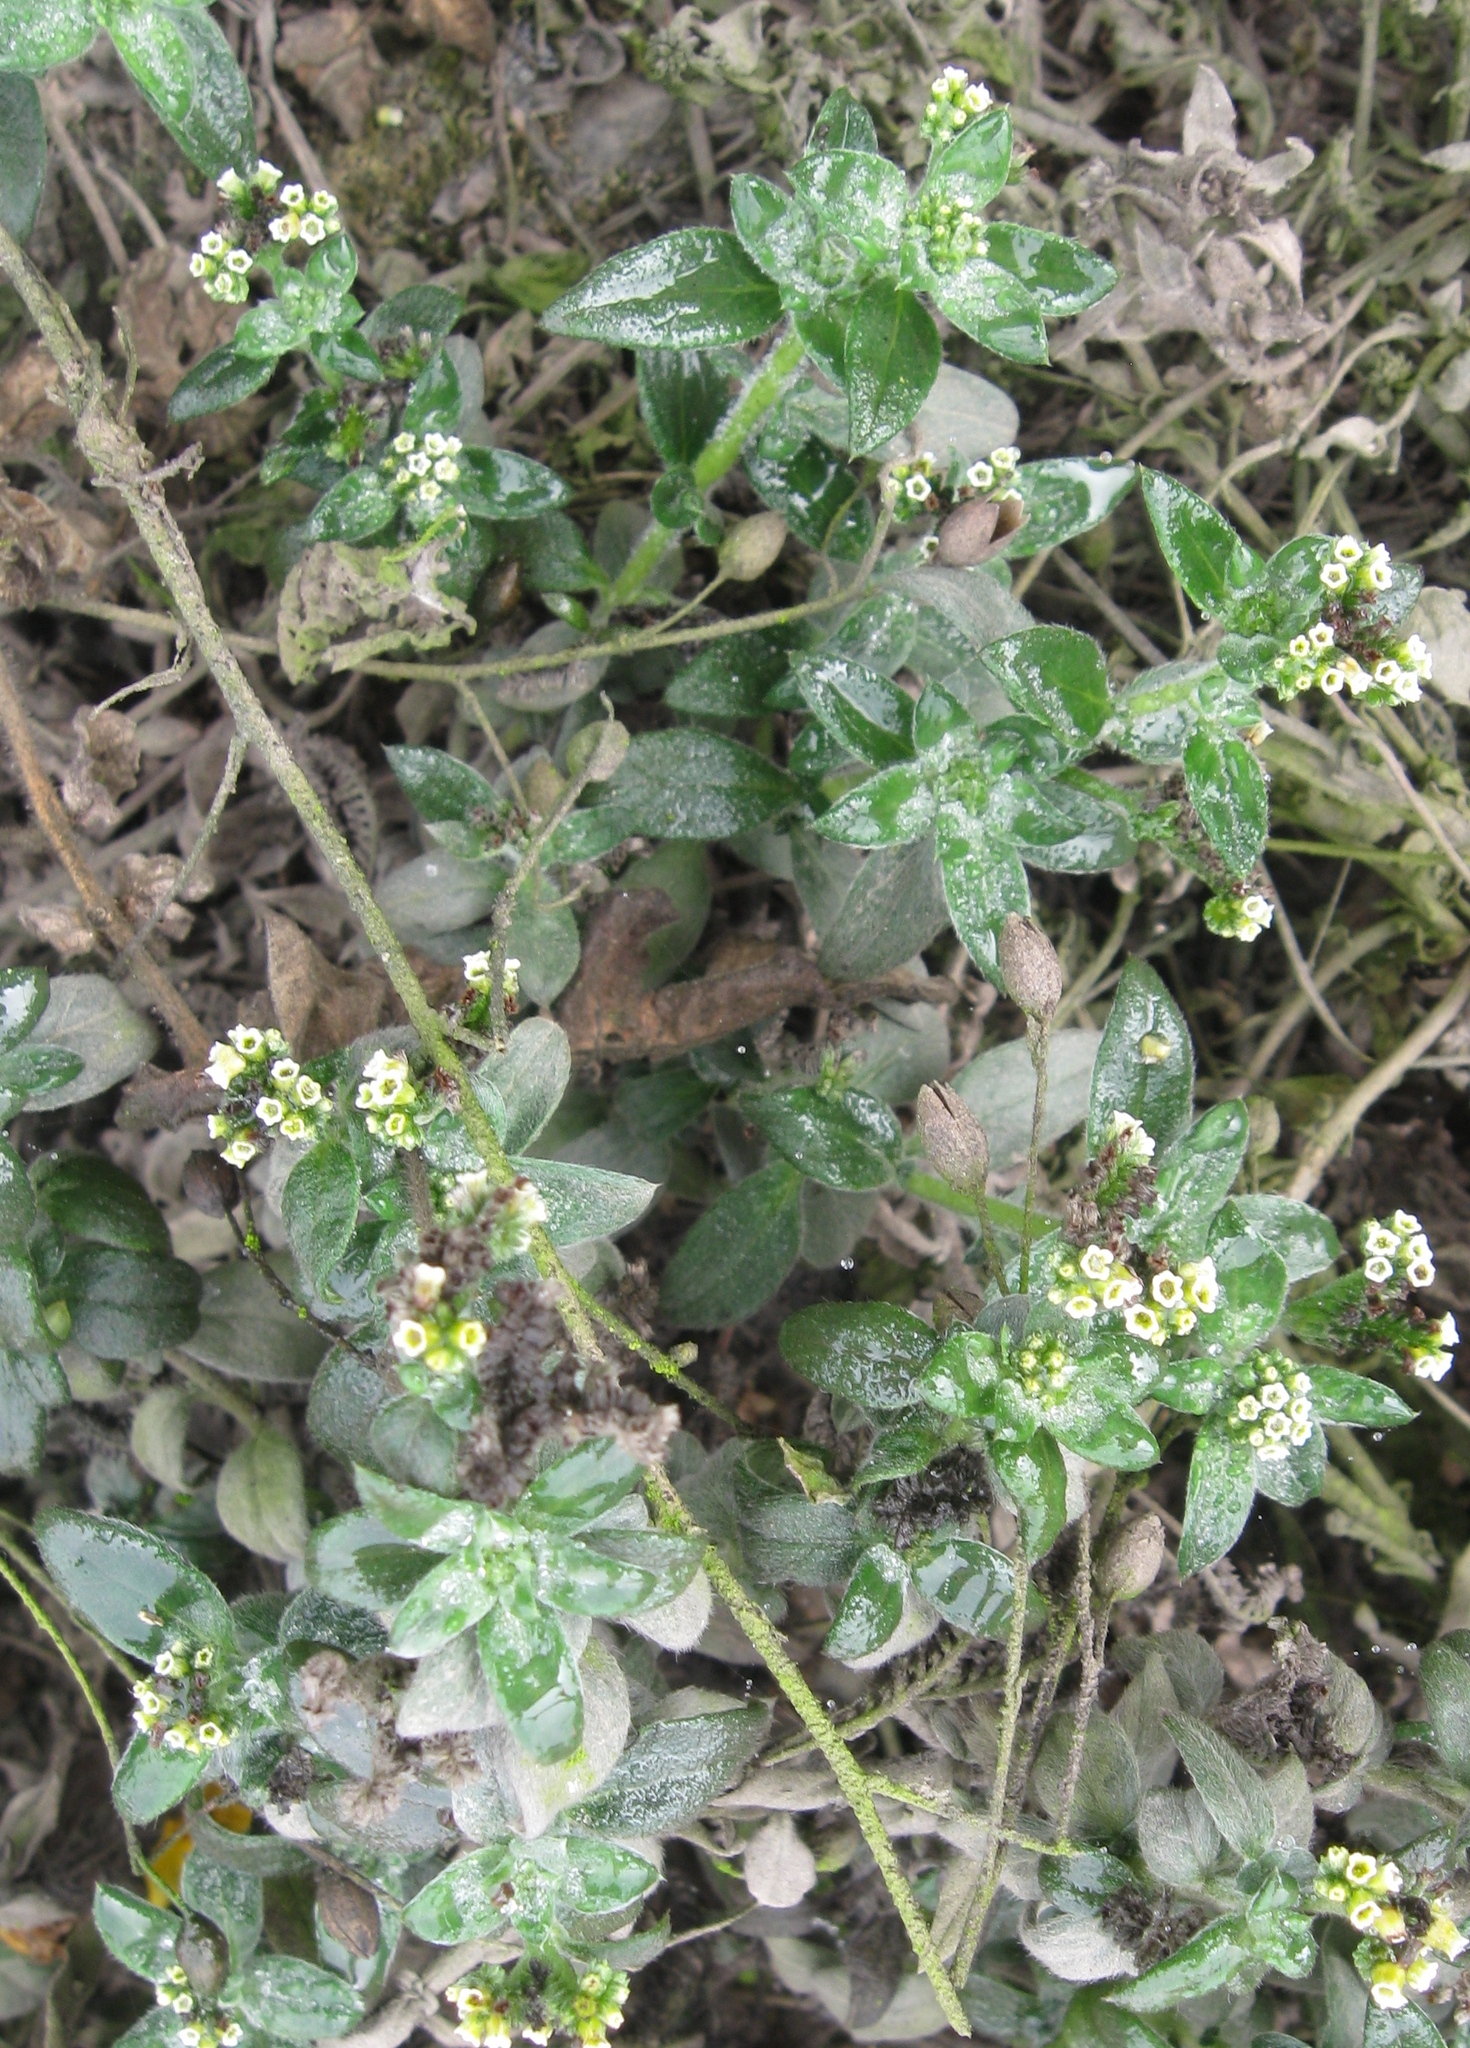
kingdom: Plantae
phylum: Tracheophyta
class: Magnoliopsida
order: Boraginales
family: Heliotropiaceae
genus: Euploca
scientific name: Euploca pilosa
